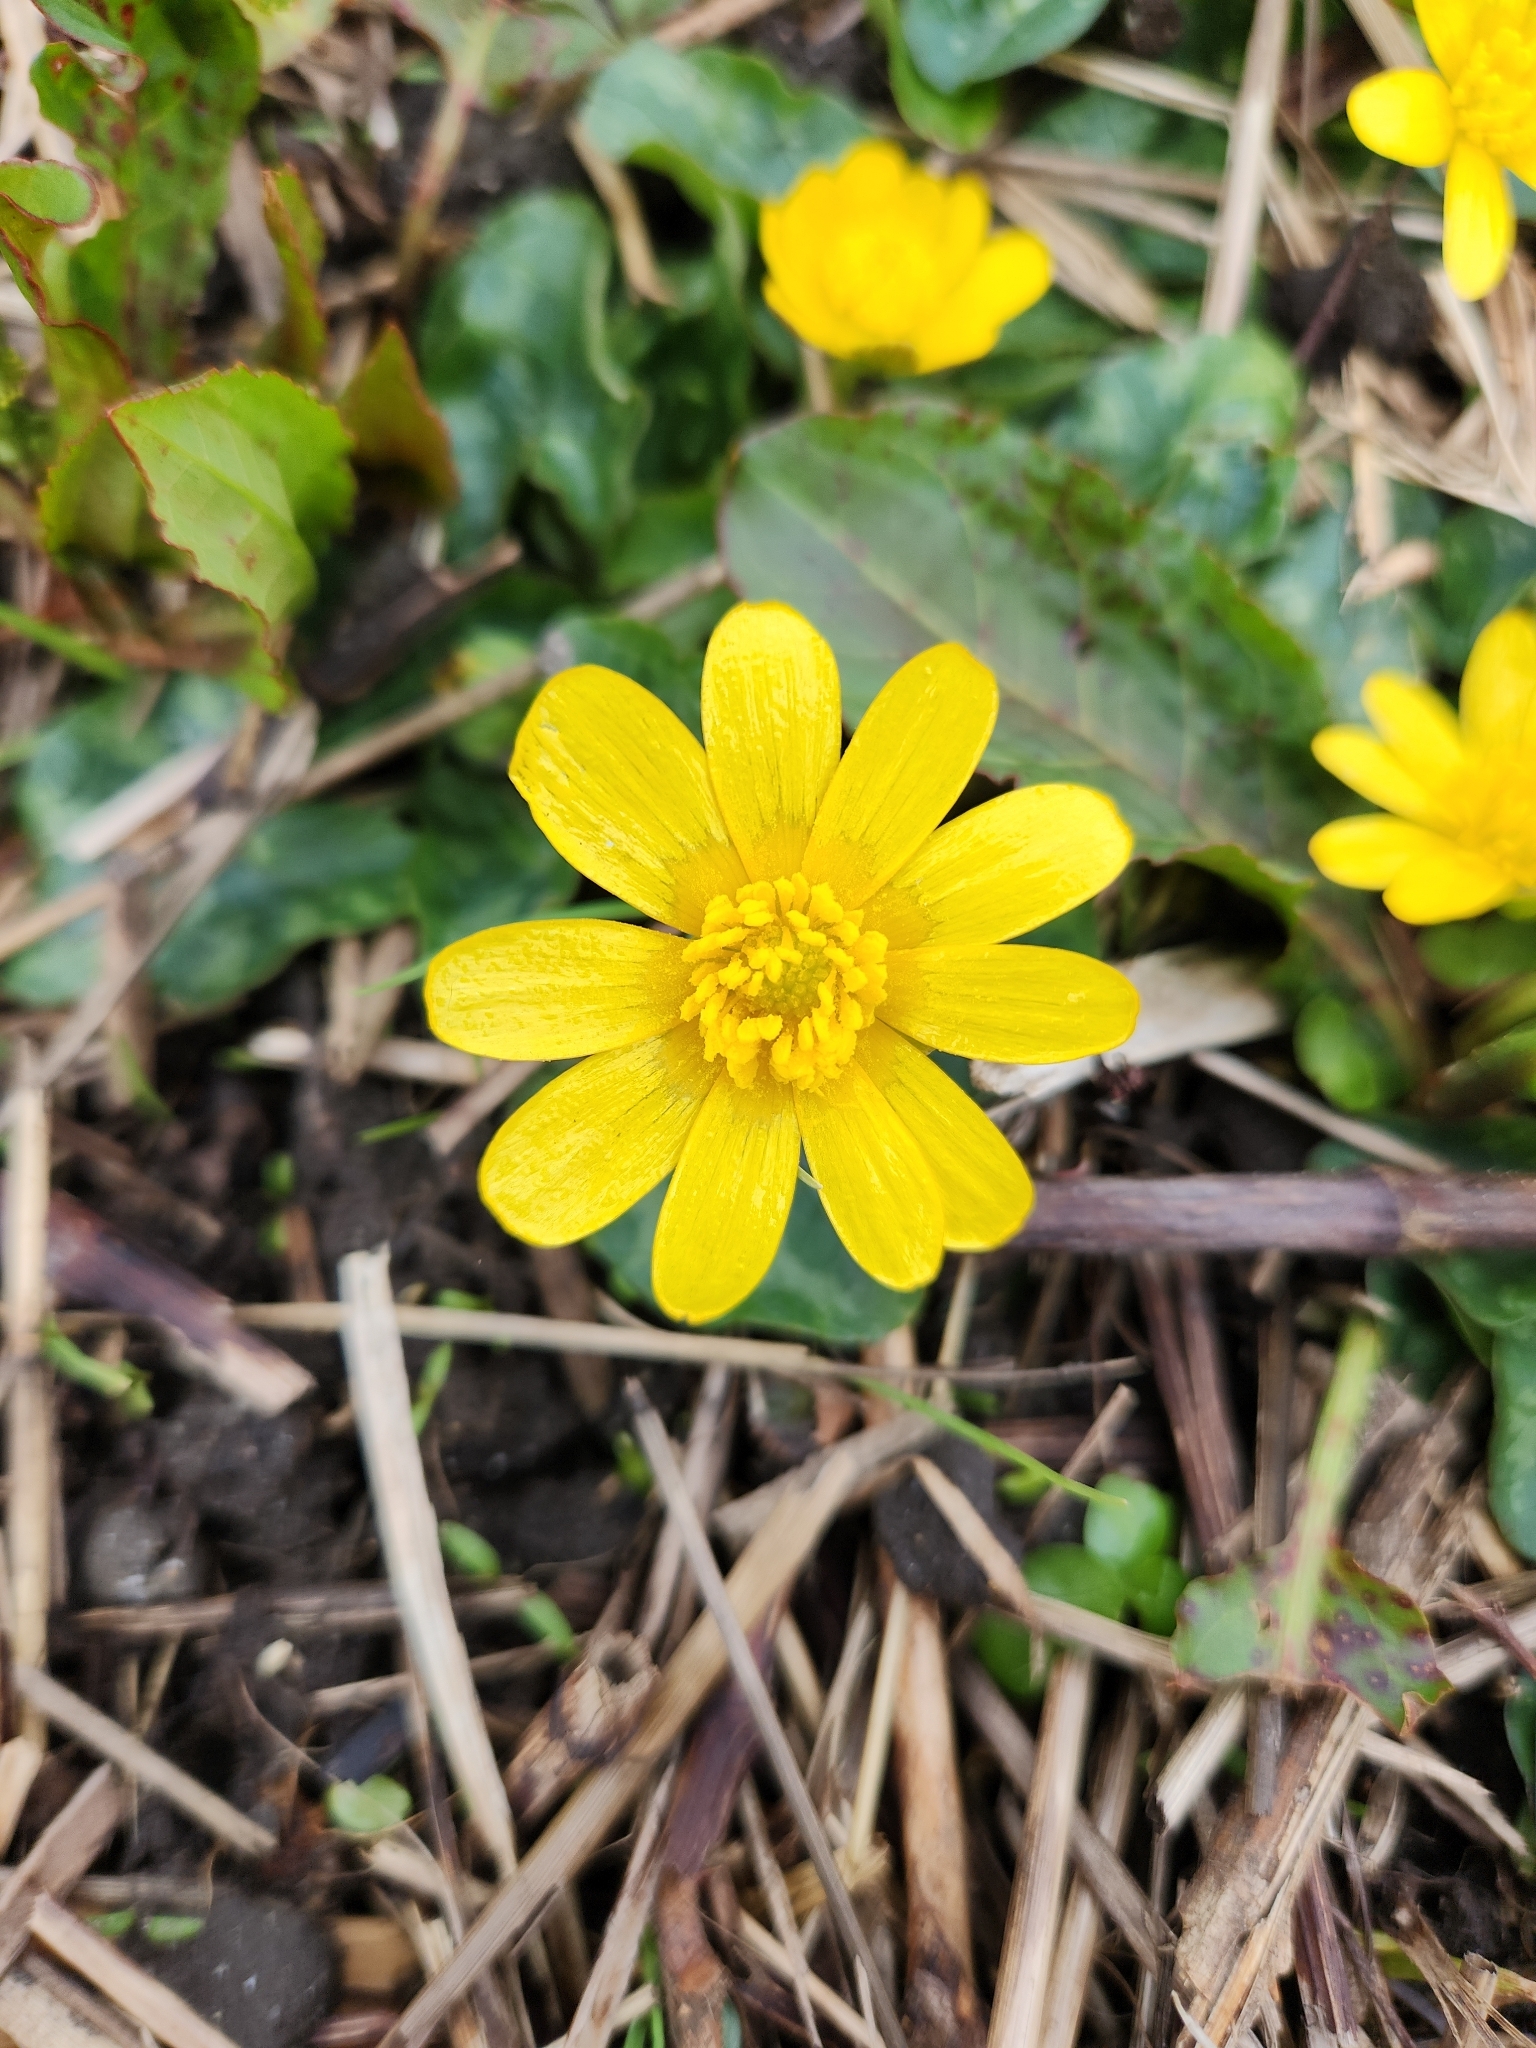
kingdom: Plantae
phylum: Tracheophyta
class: Magnoliopsida
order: Ranunculales
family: Ranunculaceae
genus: Ficaria
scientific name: Ficaria verna
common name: Lesser celandine
